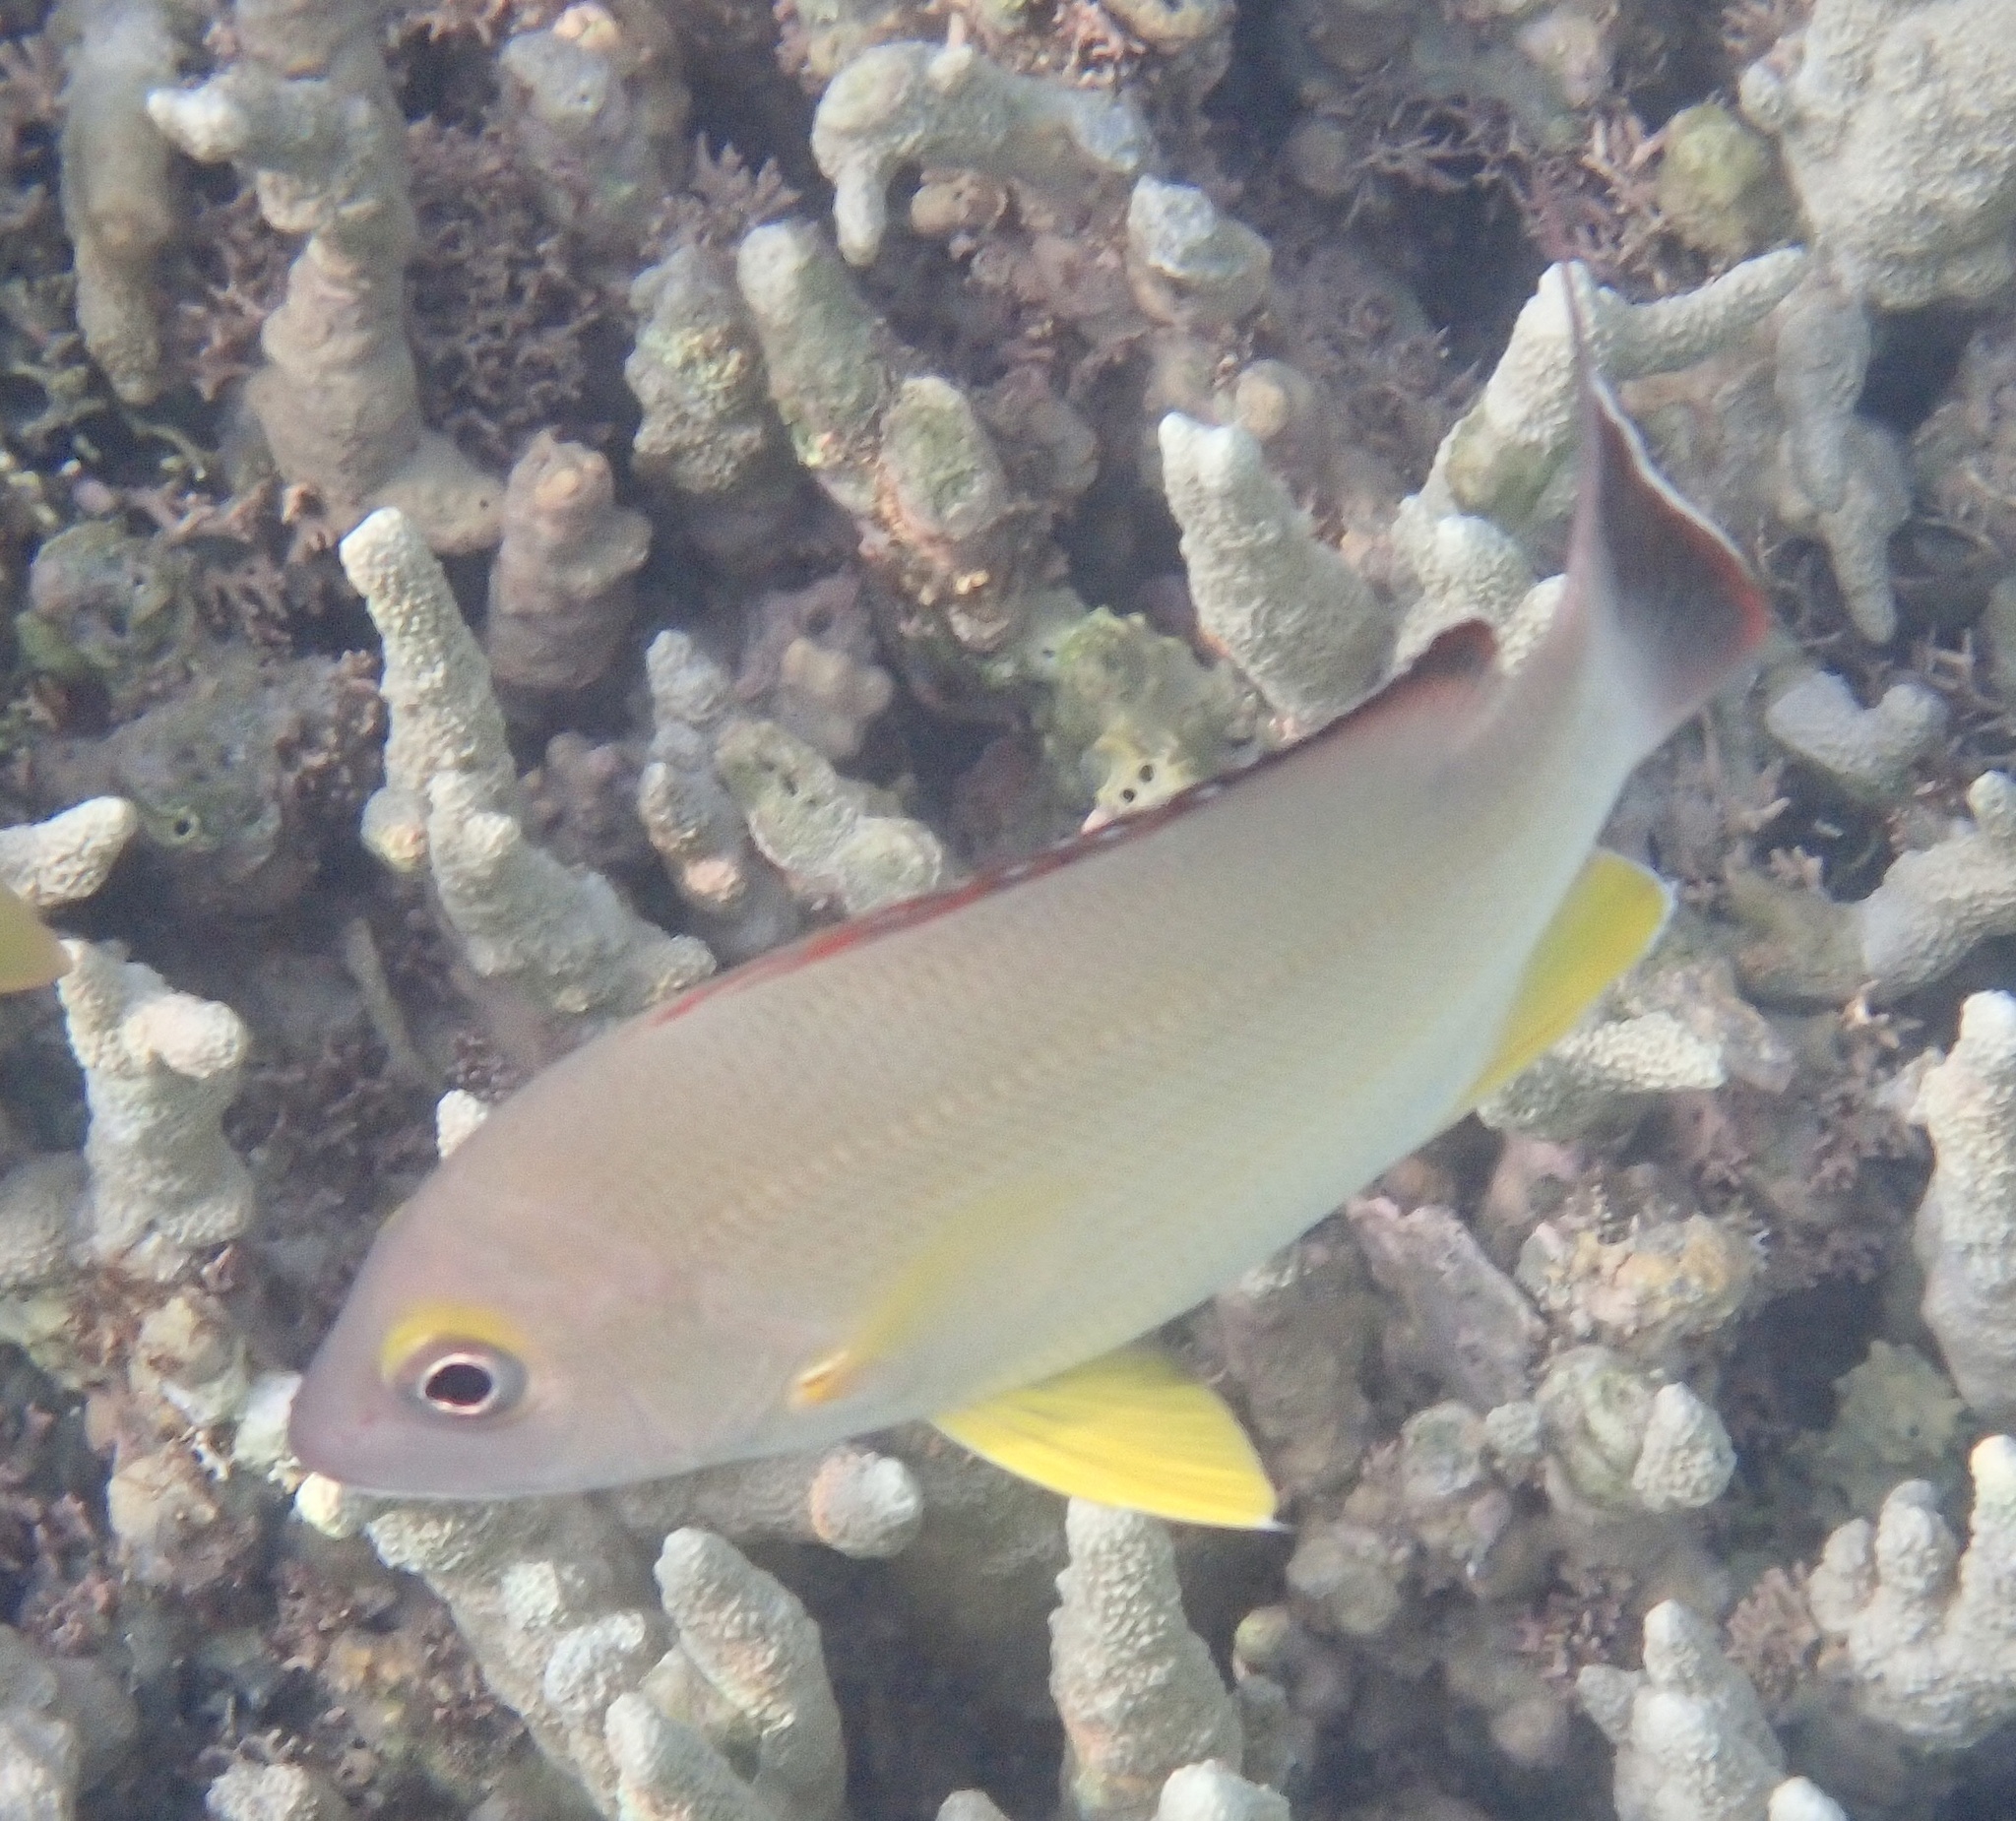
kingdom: Animalia
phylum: Chordata
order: Perciformes
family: Lutjanidae
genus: Lutjanus
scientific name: Lutjanus fulvus
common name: Blacktail snapper
